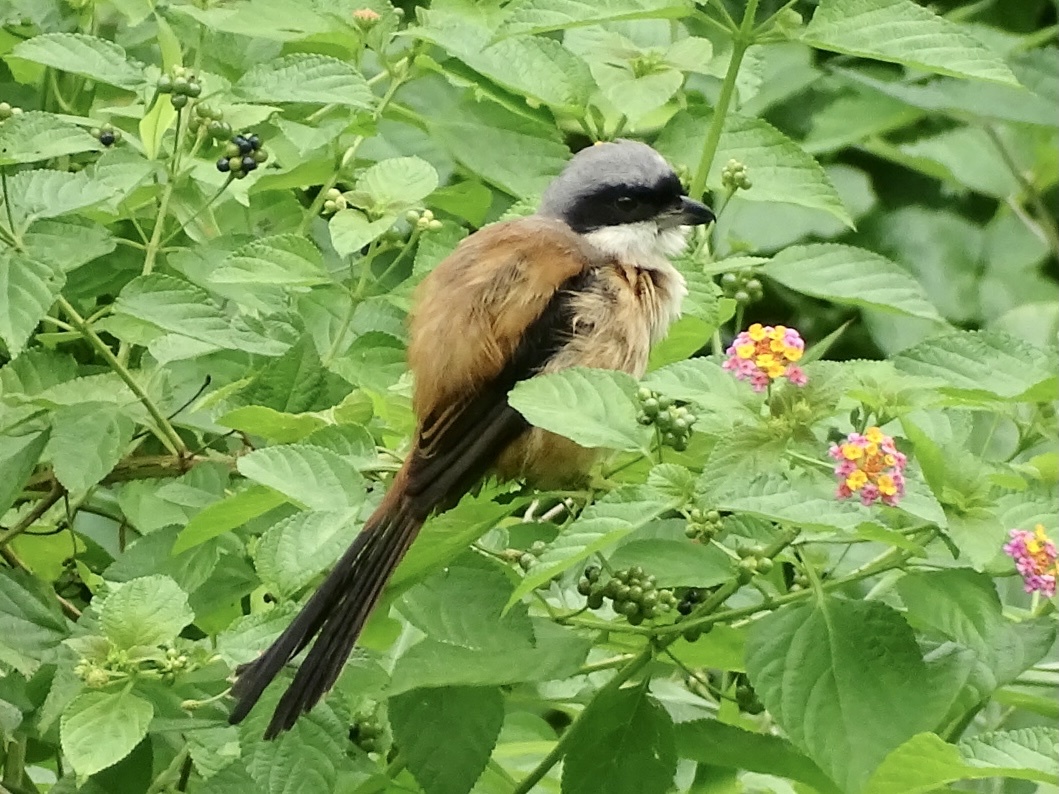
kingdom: Animalia
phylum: Chordata
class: Aves
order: Passeriformes
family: Laniidae
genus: Lanius
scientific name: Lanius schach
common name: Long-tailed shrike
